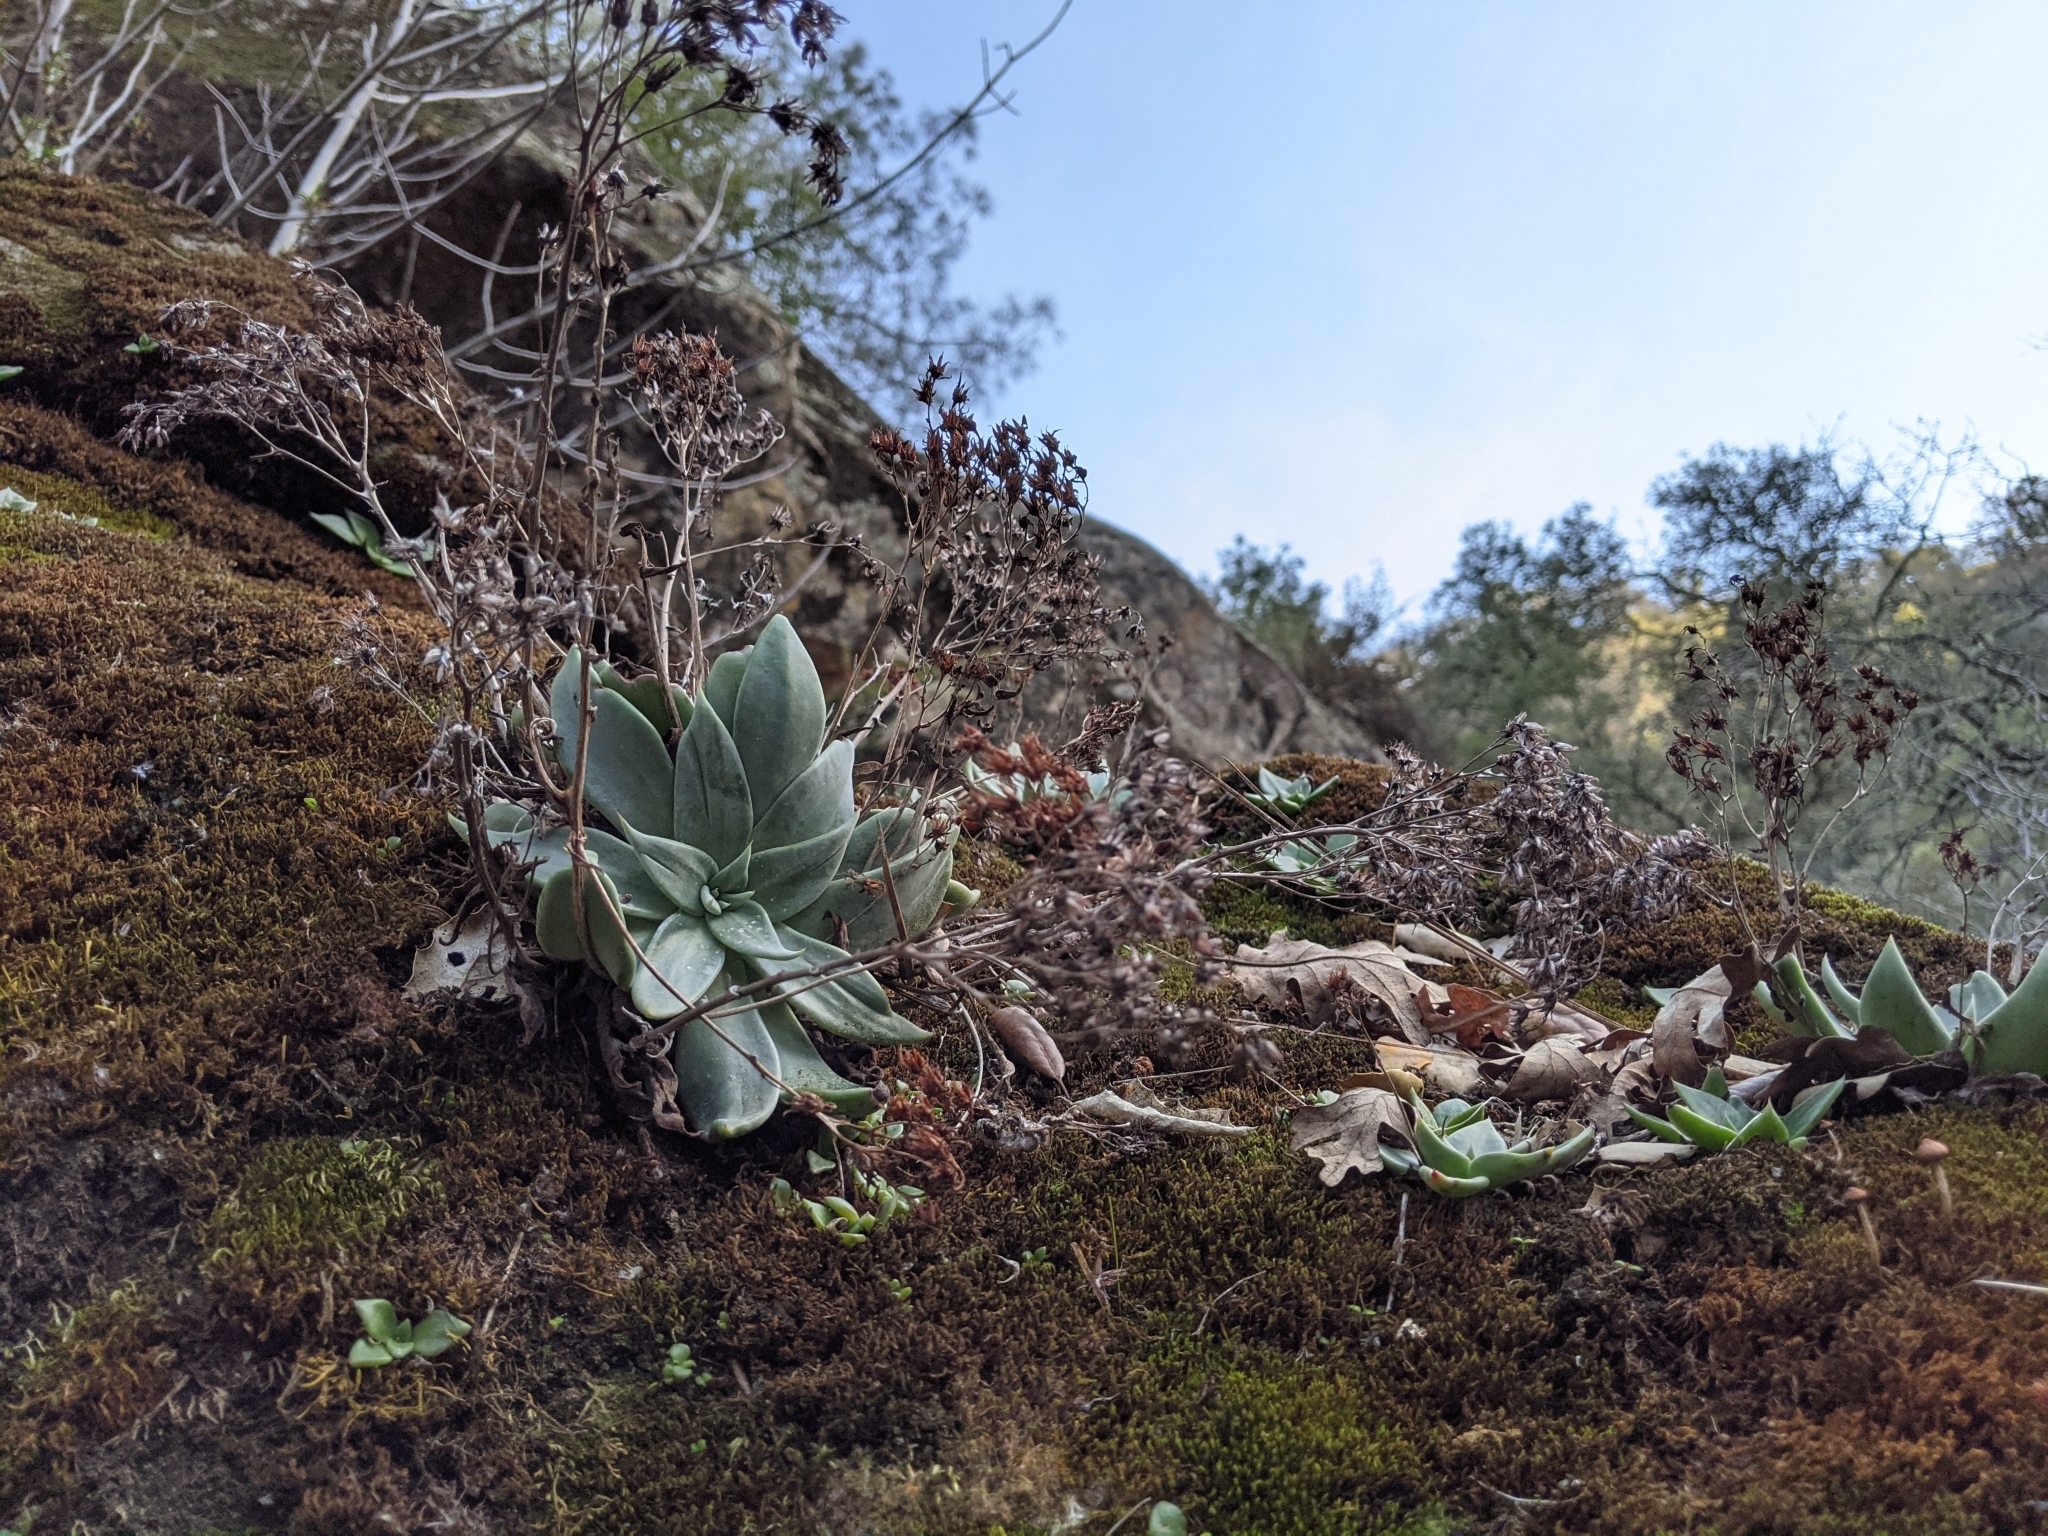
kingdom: Plantae
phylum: Tracheophyta
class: Magnoliopsida
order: Saxifragales
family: Crassulaceae
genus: Dudleya
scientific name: Dudleya cymosa
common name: Canyon dudleya
